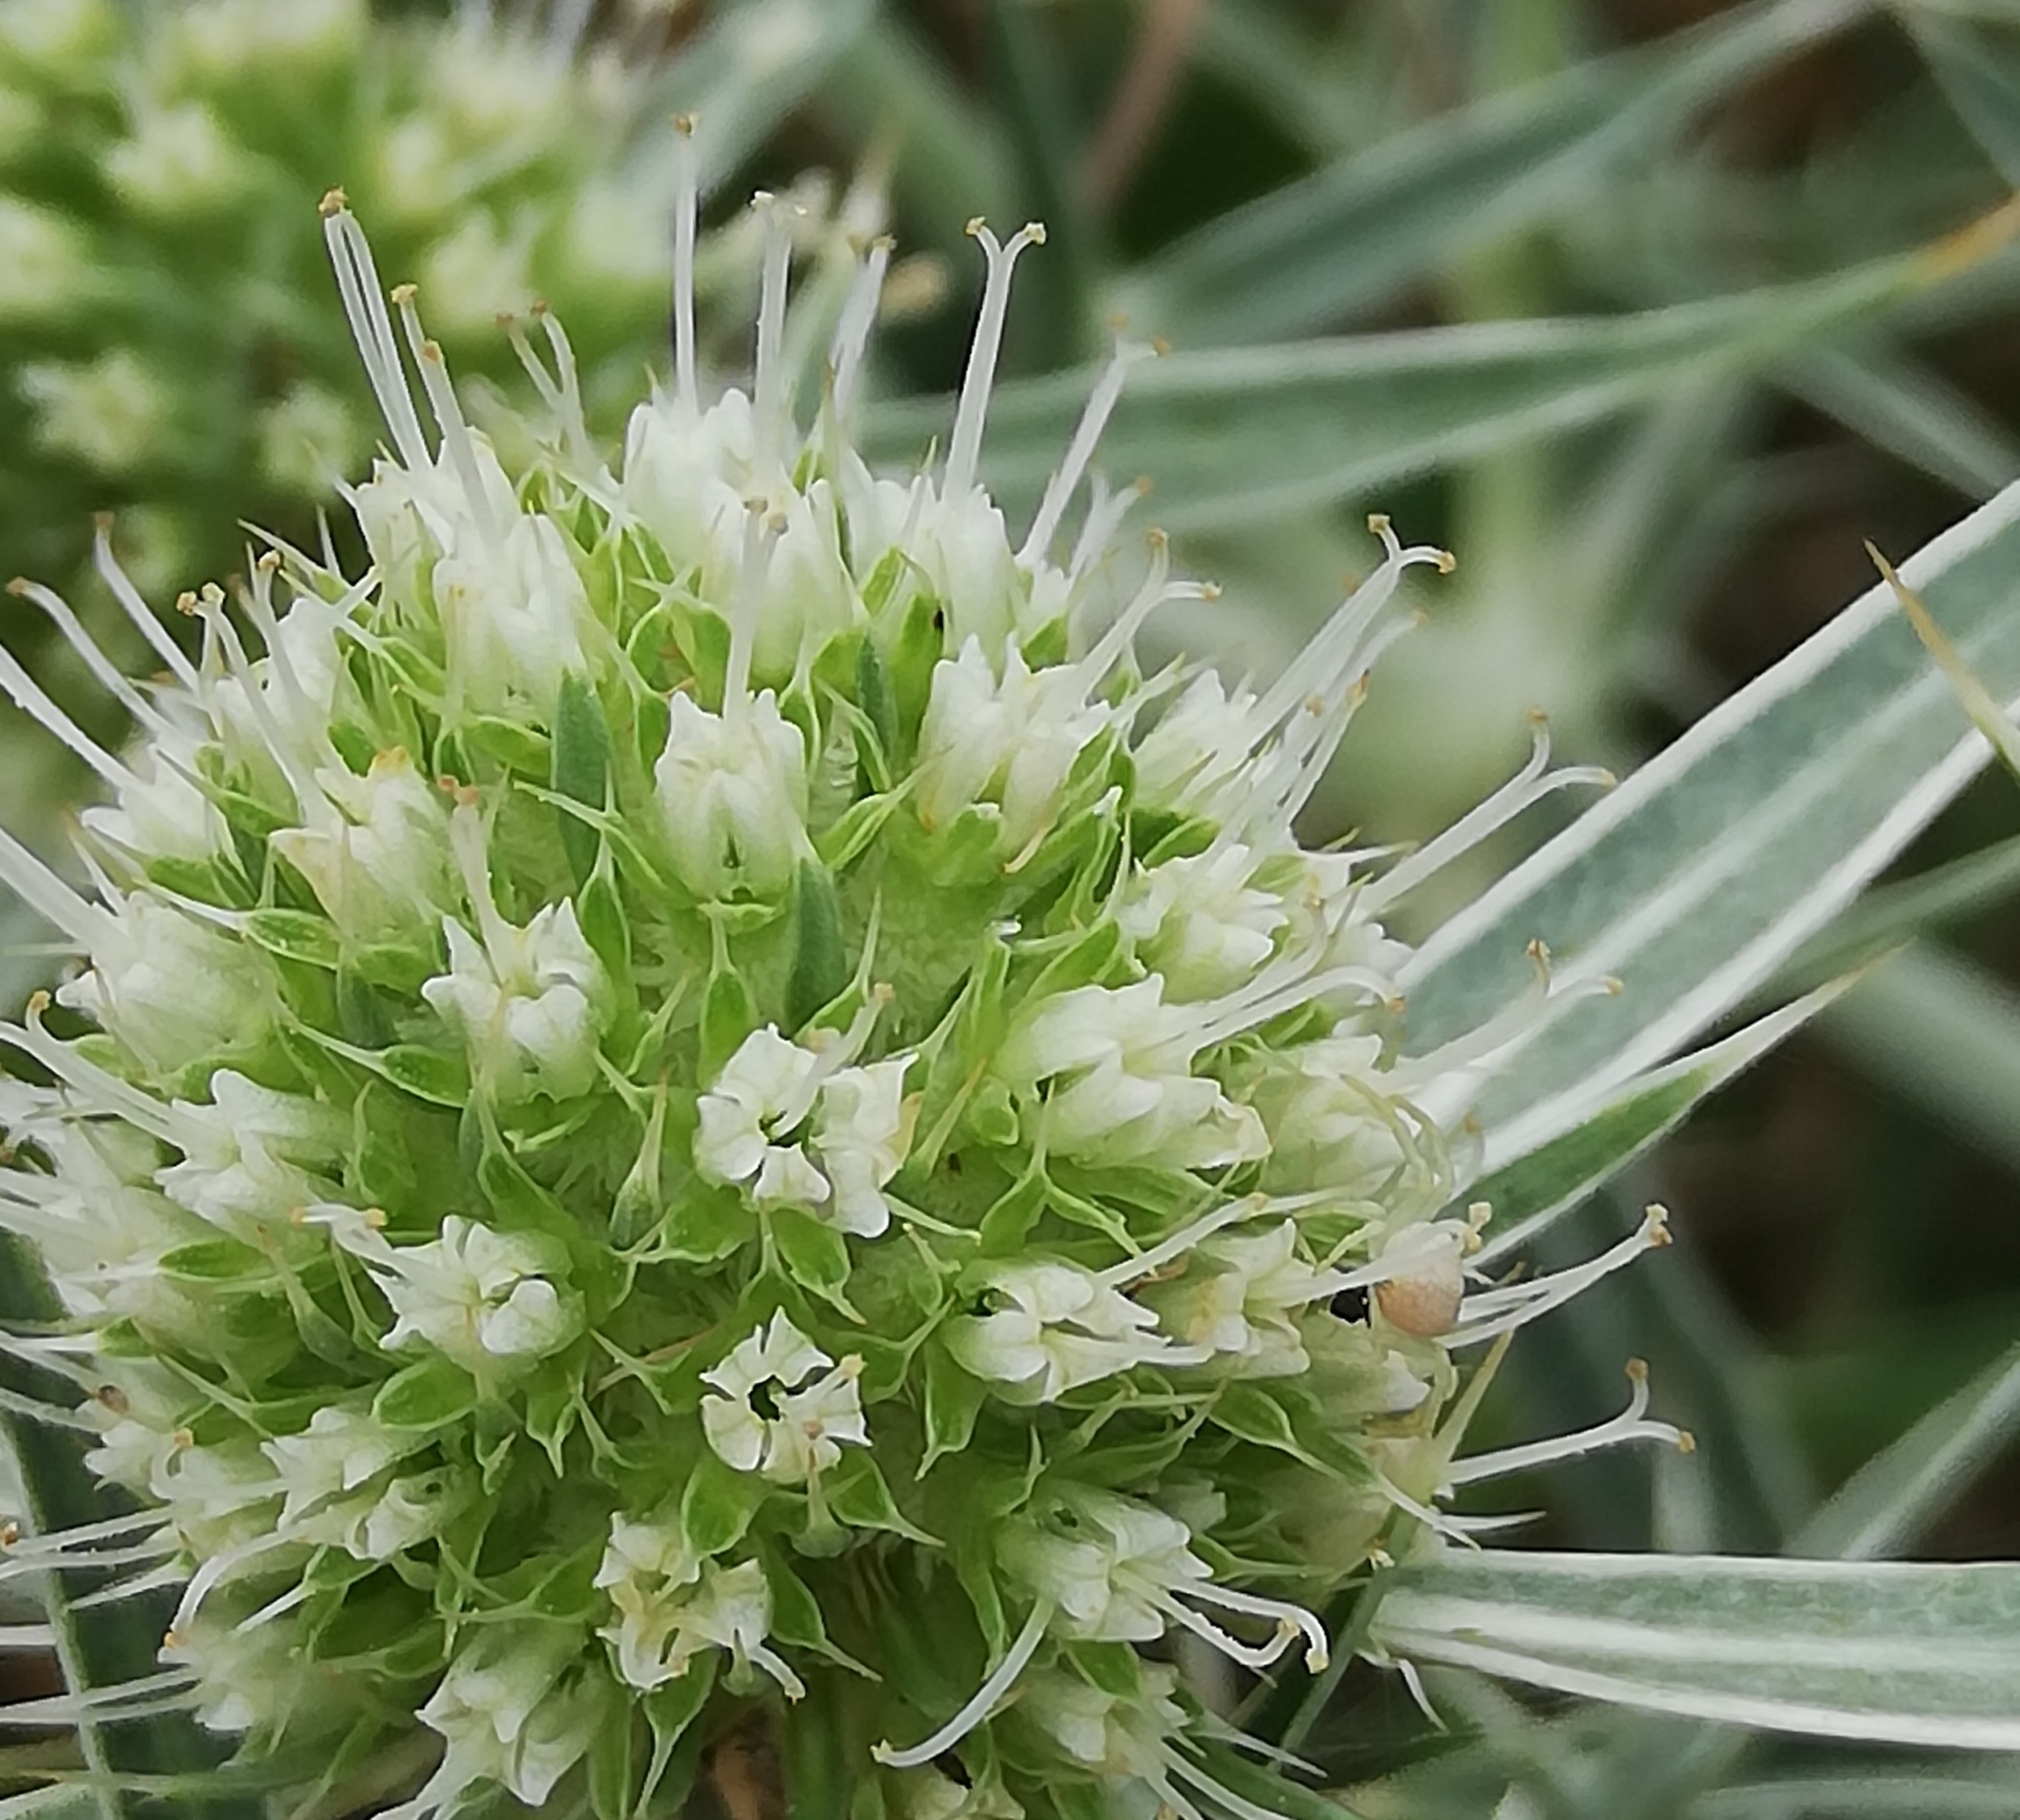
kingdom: Plantae
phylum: Tracheophyta
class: Magnoliopsida
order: Apiales
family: Apiaceae
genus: Eryngium
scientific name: Eryngium campestre
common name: Field eryngo
